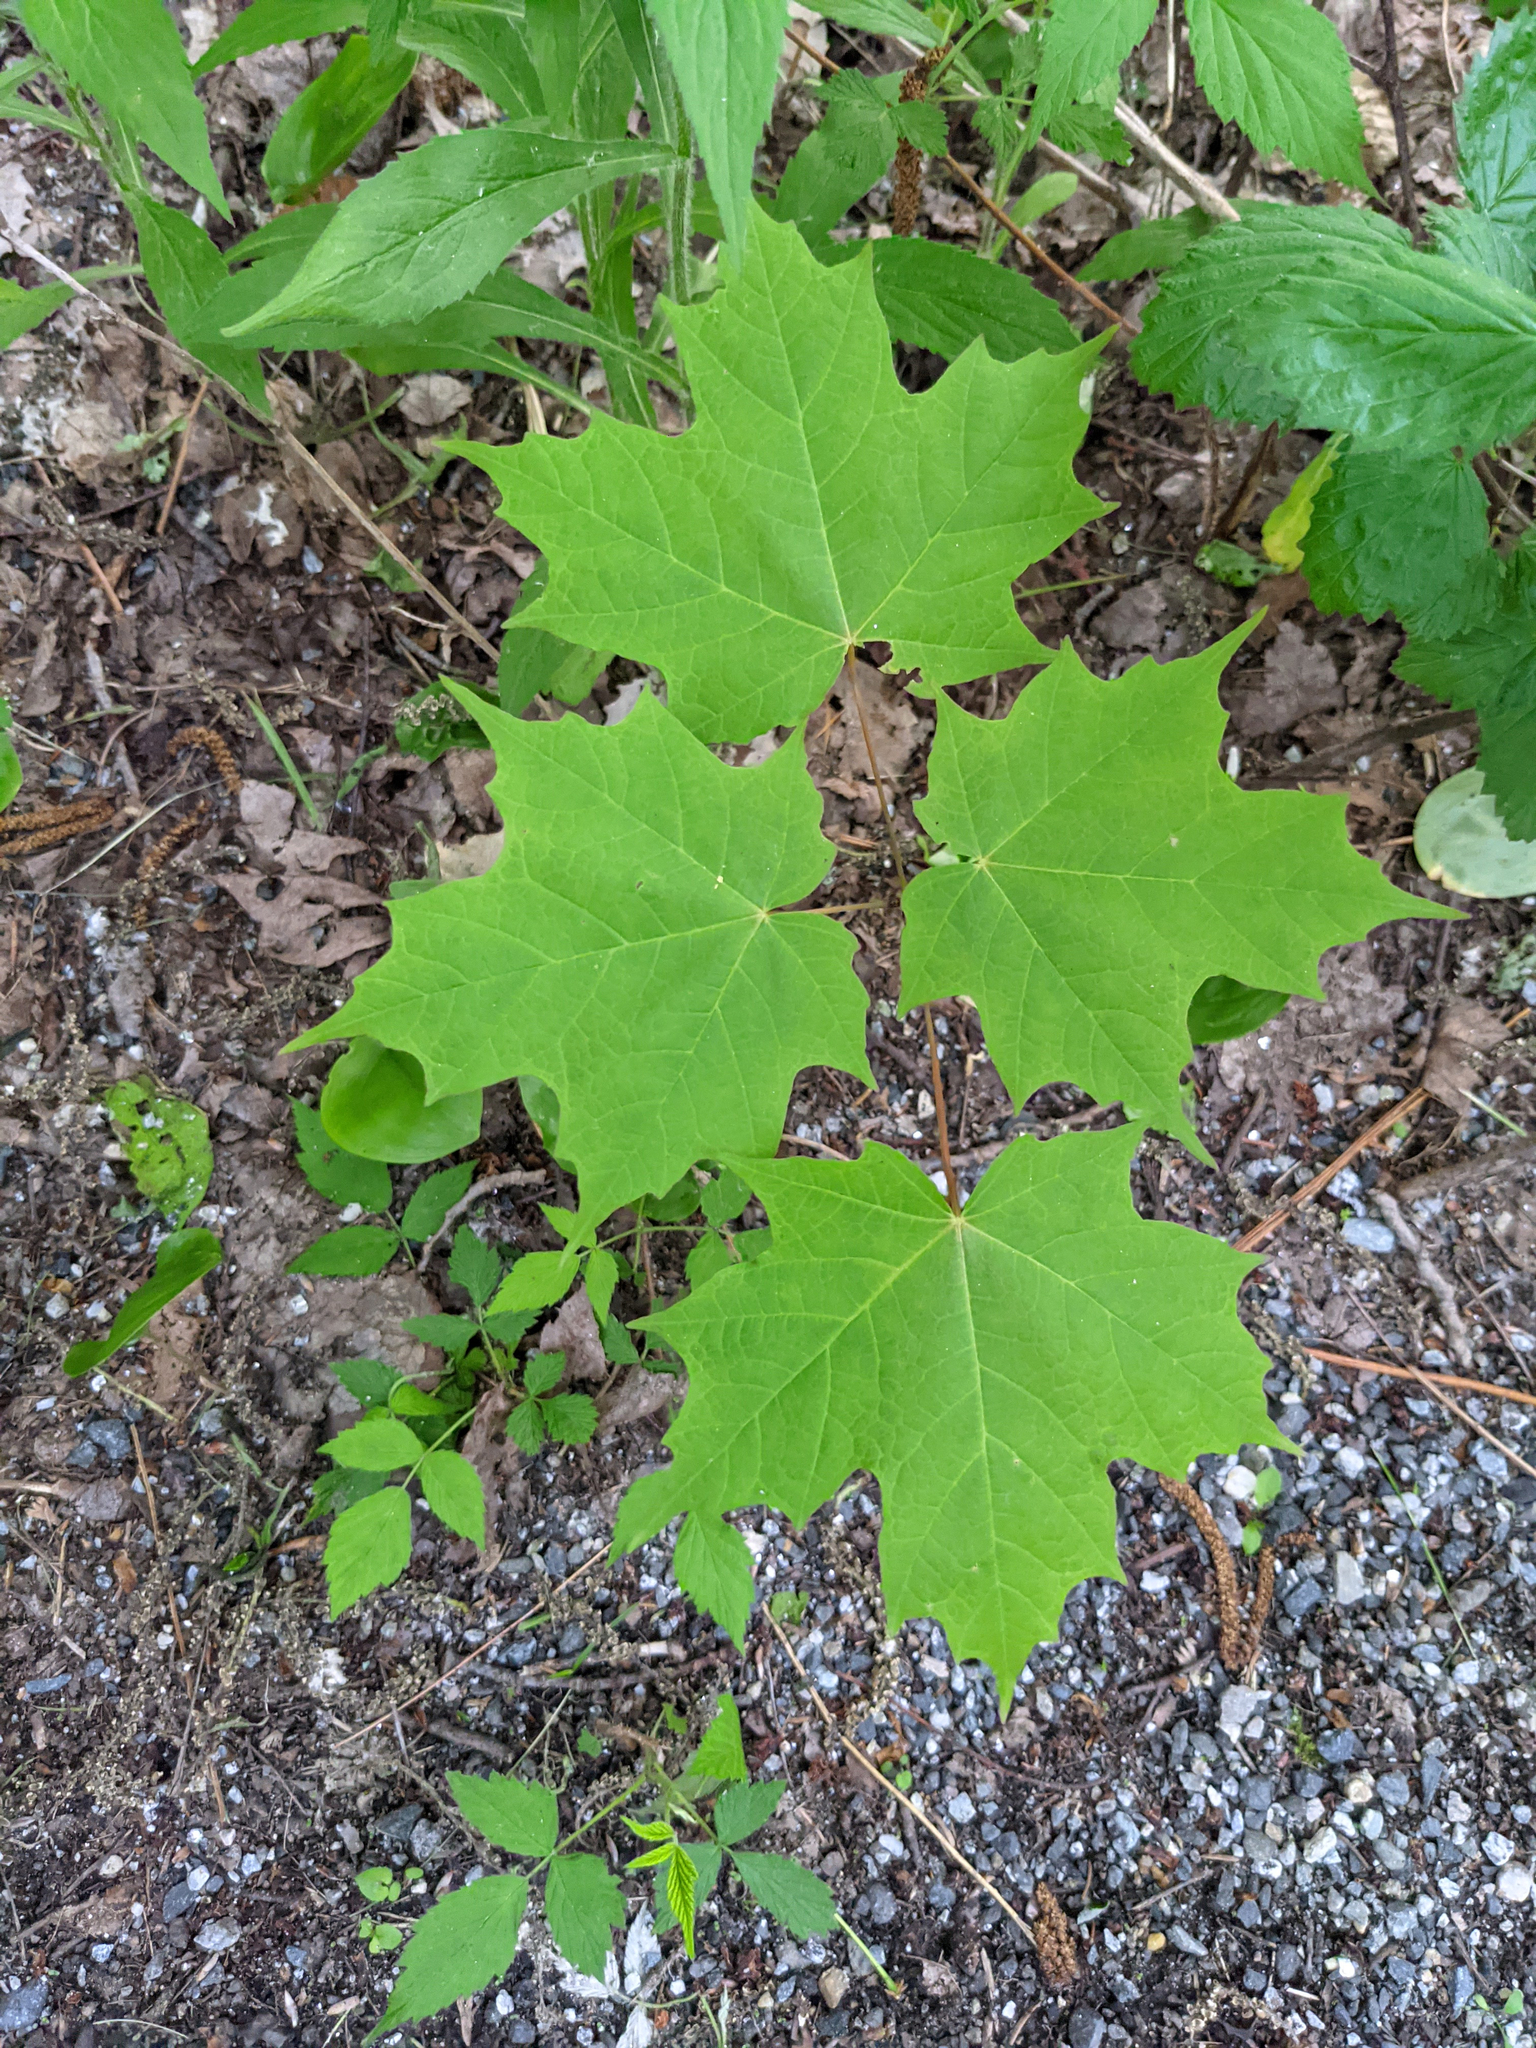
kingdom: Plantae
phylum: Tracheophyta
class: Magnoliopsida
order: Sapindales
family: Sapindaceae
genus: Acer
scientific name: Acer saccharum
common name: Sugar maple
